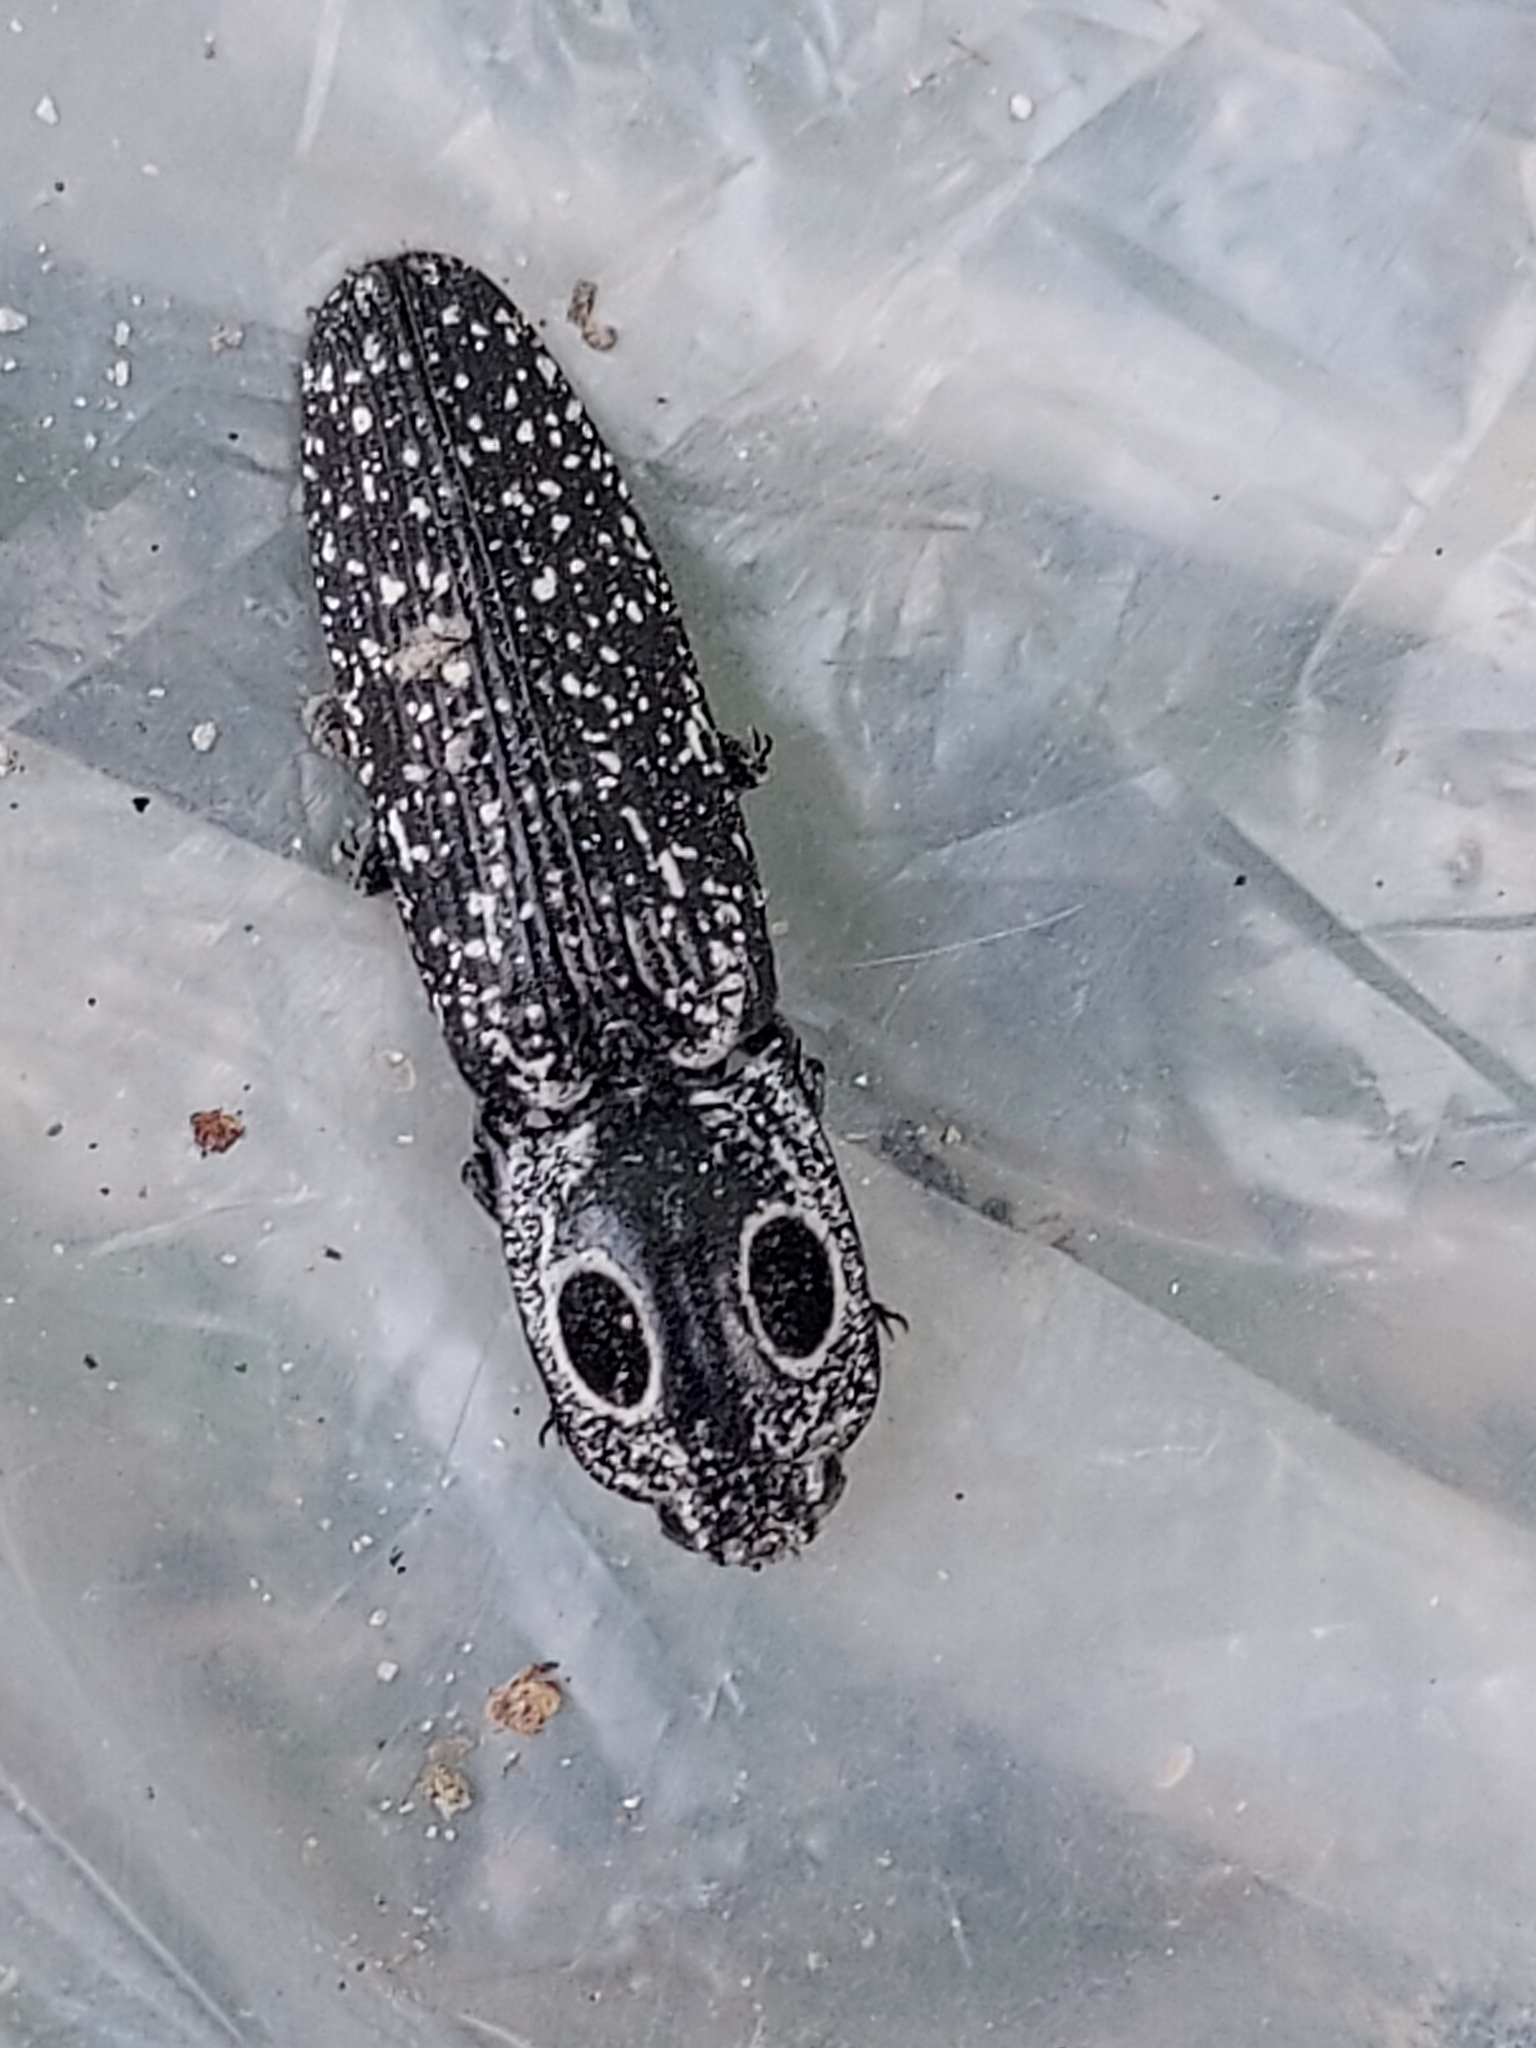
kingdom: Animalia
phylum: Arthropoda
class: Insecta
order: Coleoptera
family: Elateridae
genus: Alaus
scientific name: Alaus oculatus
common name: Eastern eyed click beetle
